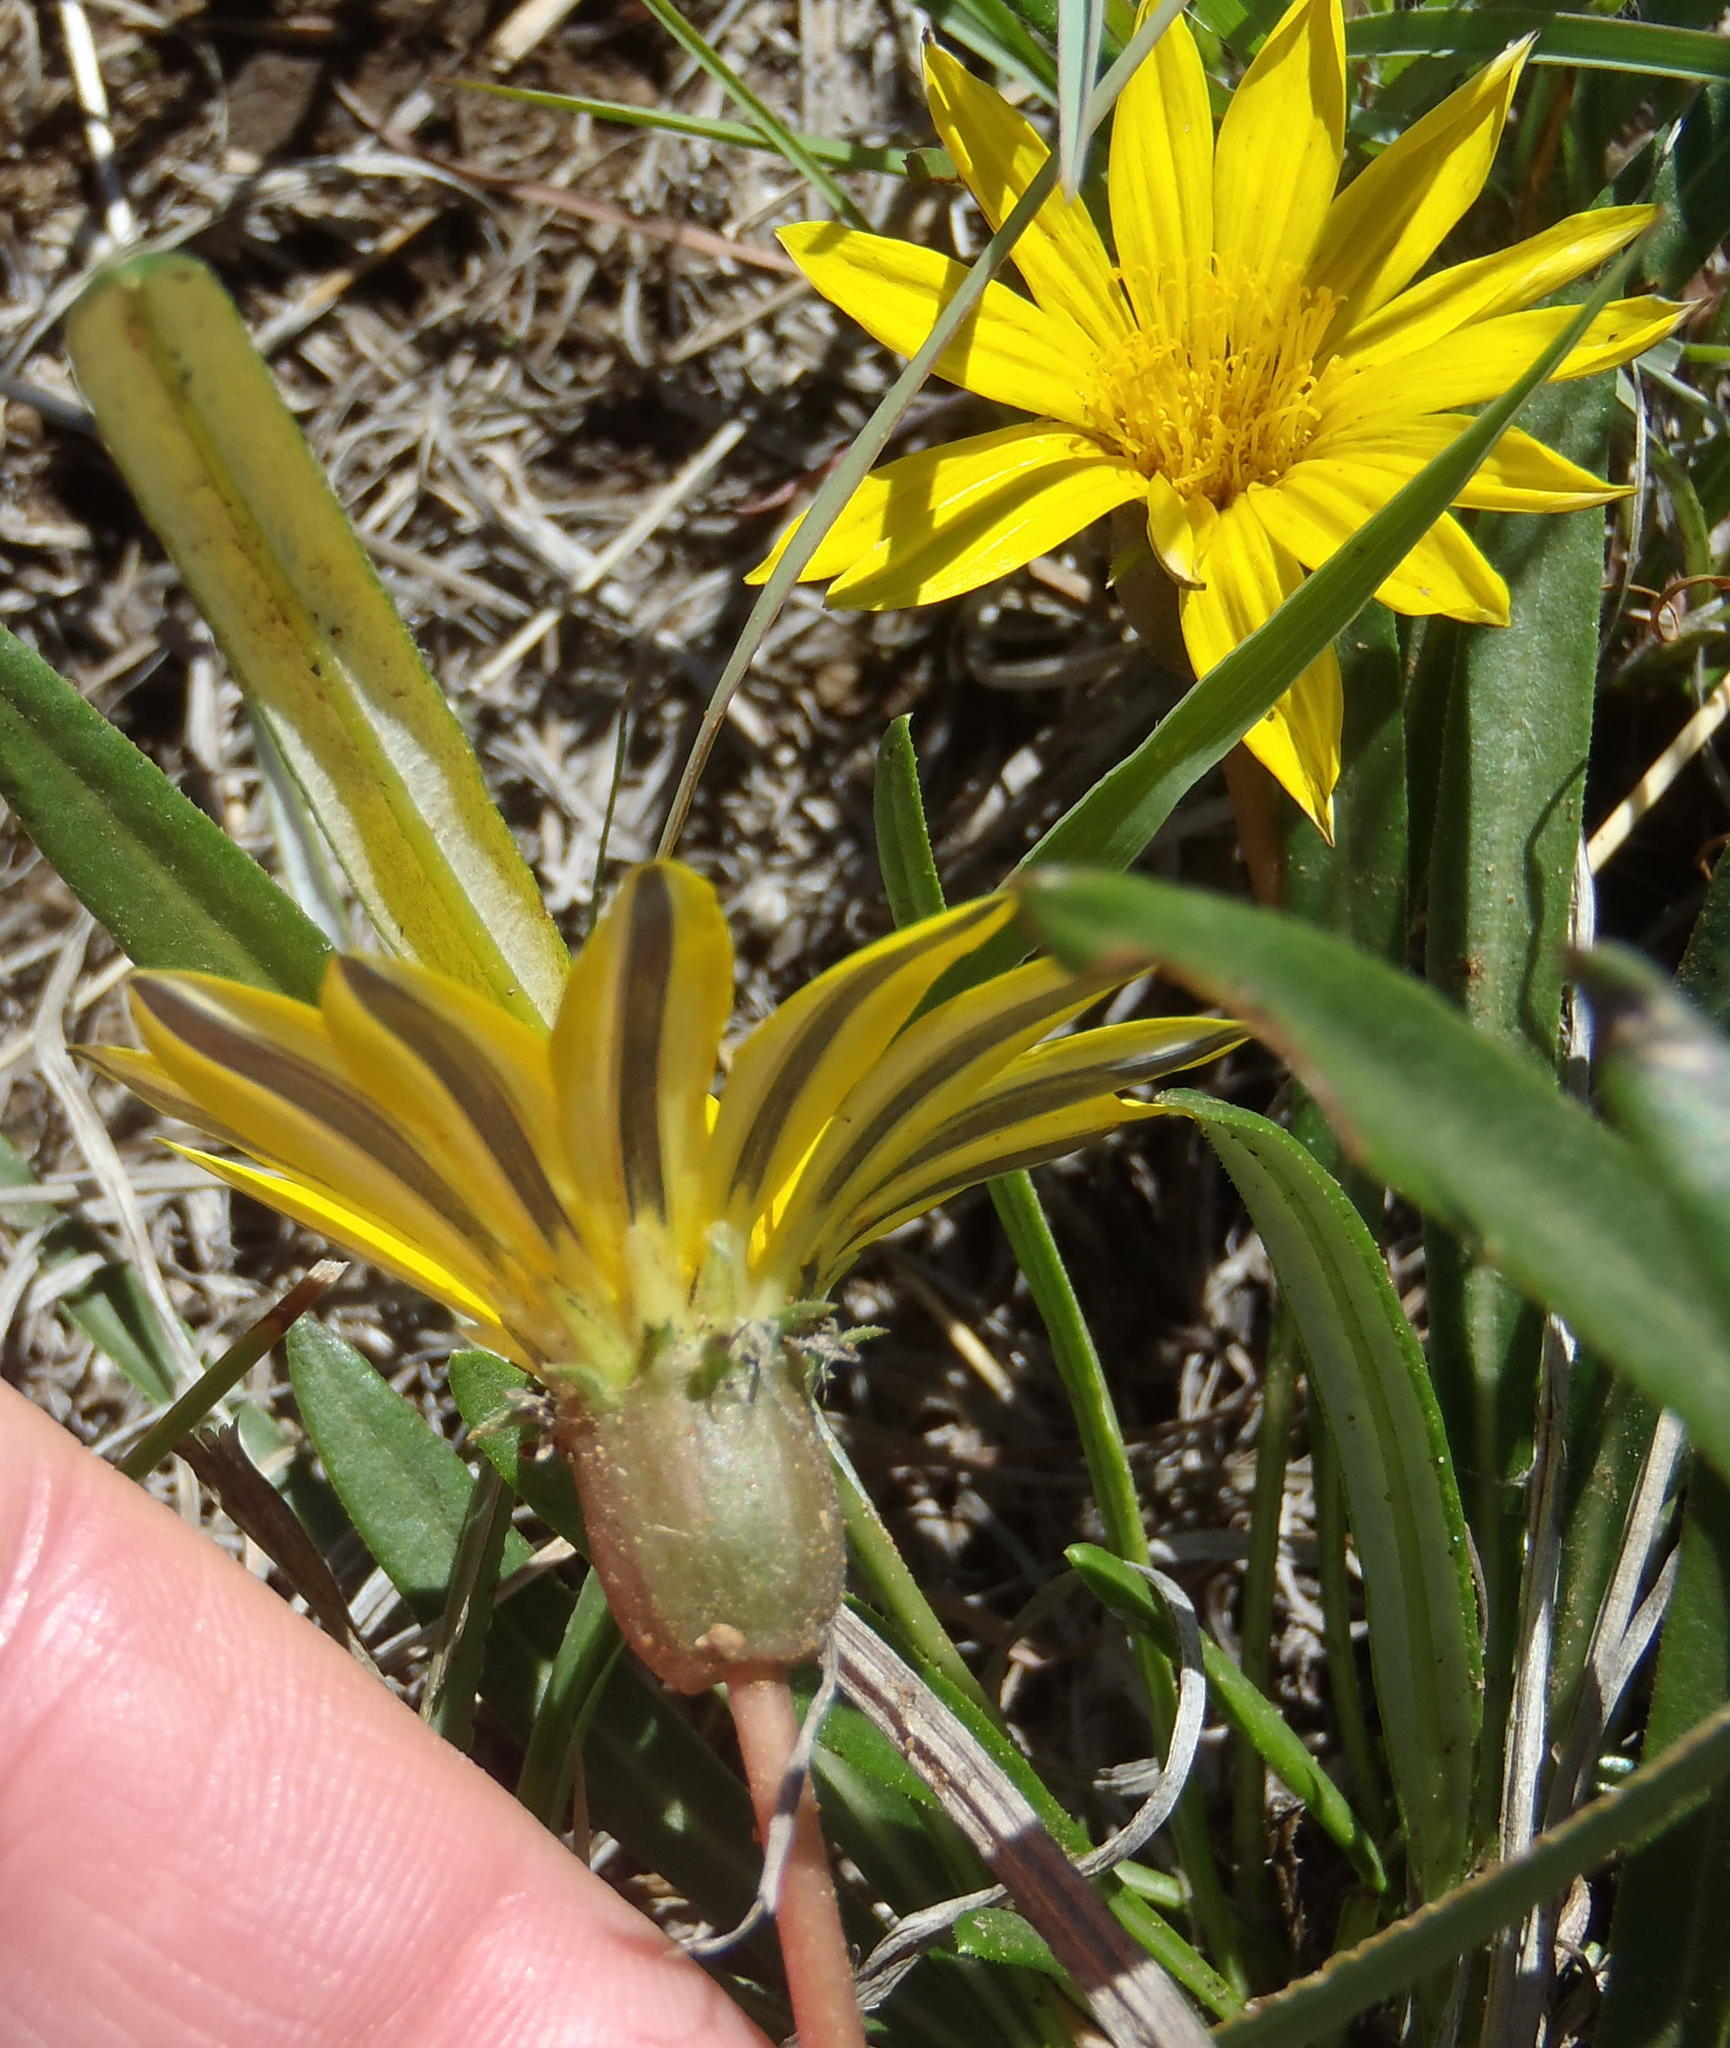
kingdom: Plantae
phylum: Tracheophyta
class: Magnoliopsida
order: Asterales
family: Asteraceae
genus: Gazania
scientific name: Gazania krebsiana
